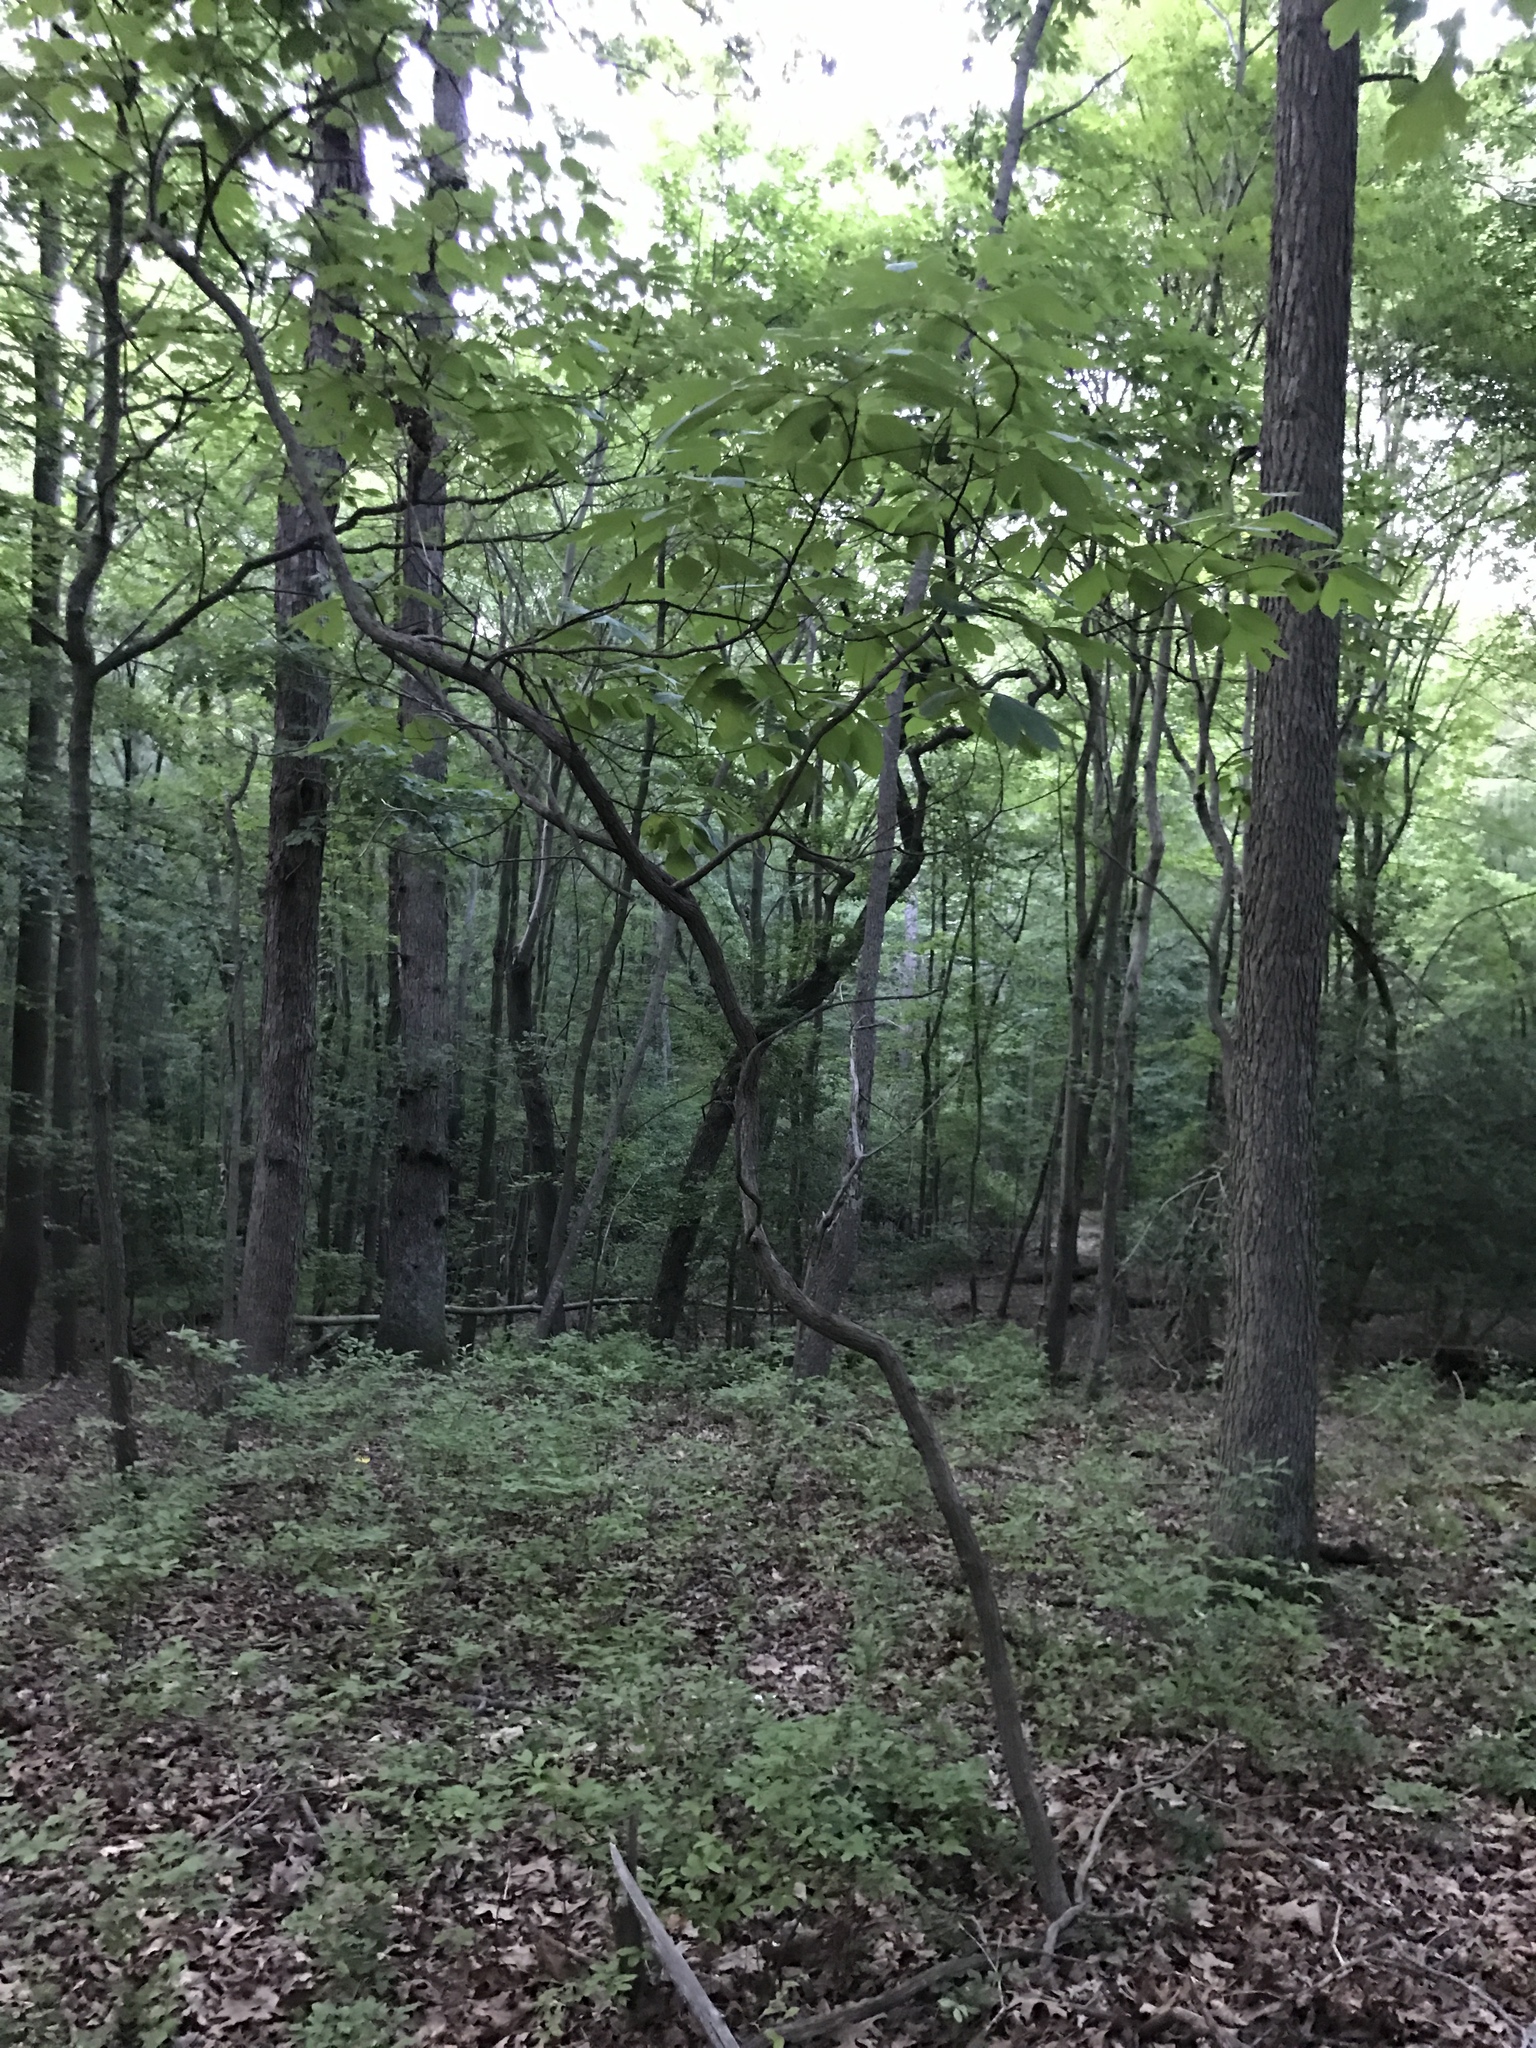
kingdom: Plantae
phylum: Tracheophyta
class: Magnoliopsida
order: Laurales
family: Lauraceae
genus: Sassafras
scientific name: Sassafras albidum
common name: Sassafras
